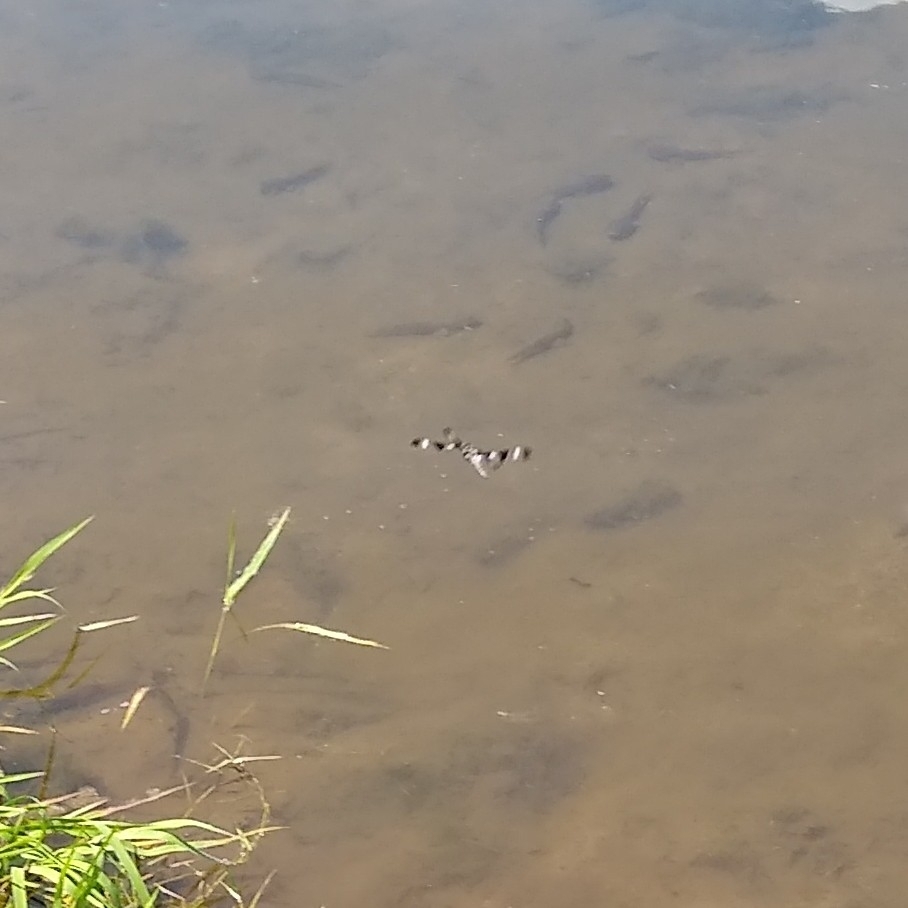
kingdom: Animalia
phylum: Arthropoda
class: Insecta
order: Odonata
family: Libellulidae
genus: Libellula
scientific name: Libellula pulchella
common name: Twelve-spotted skimmer
